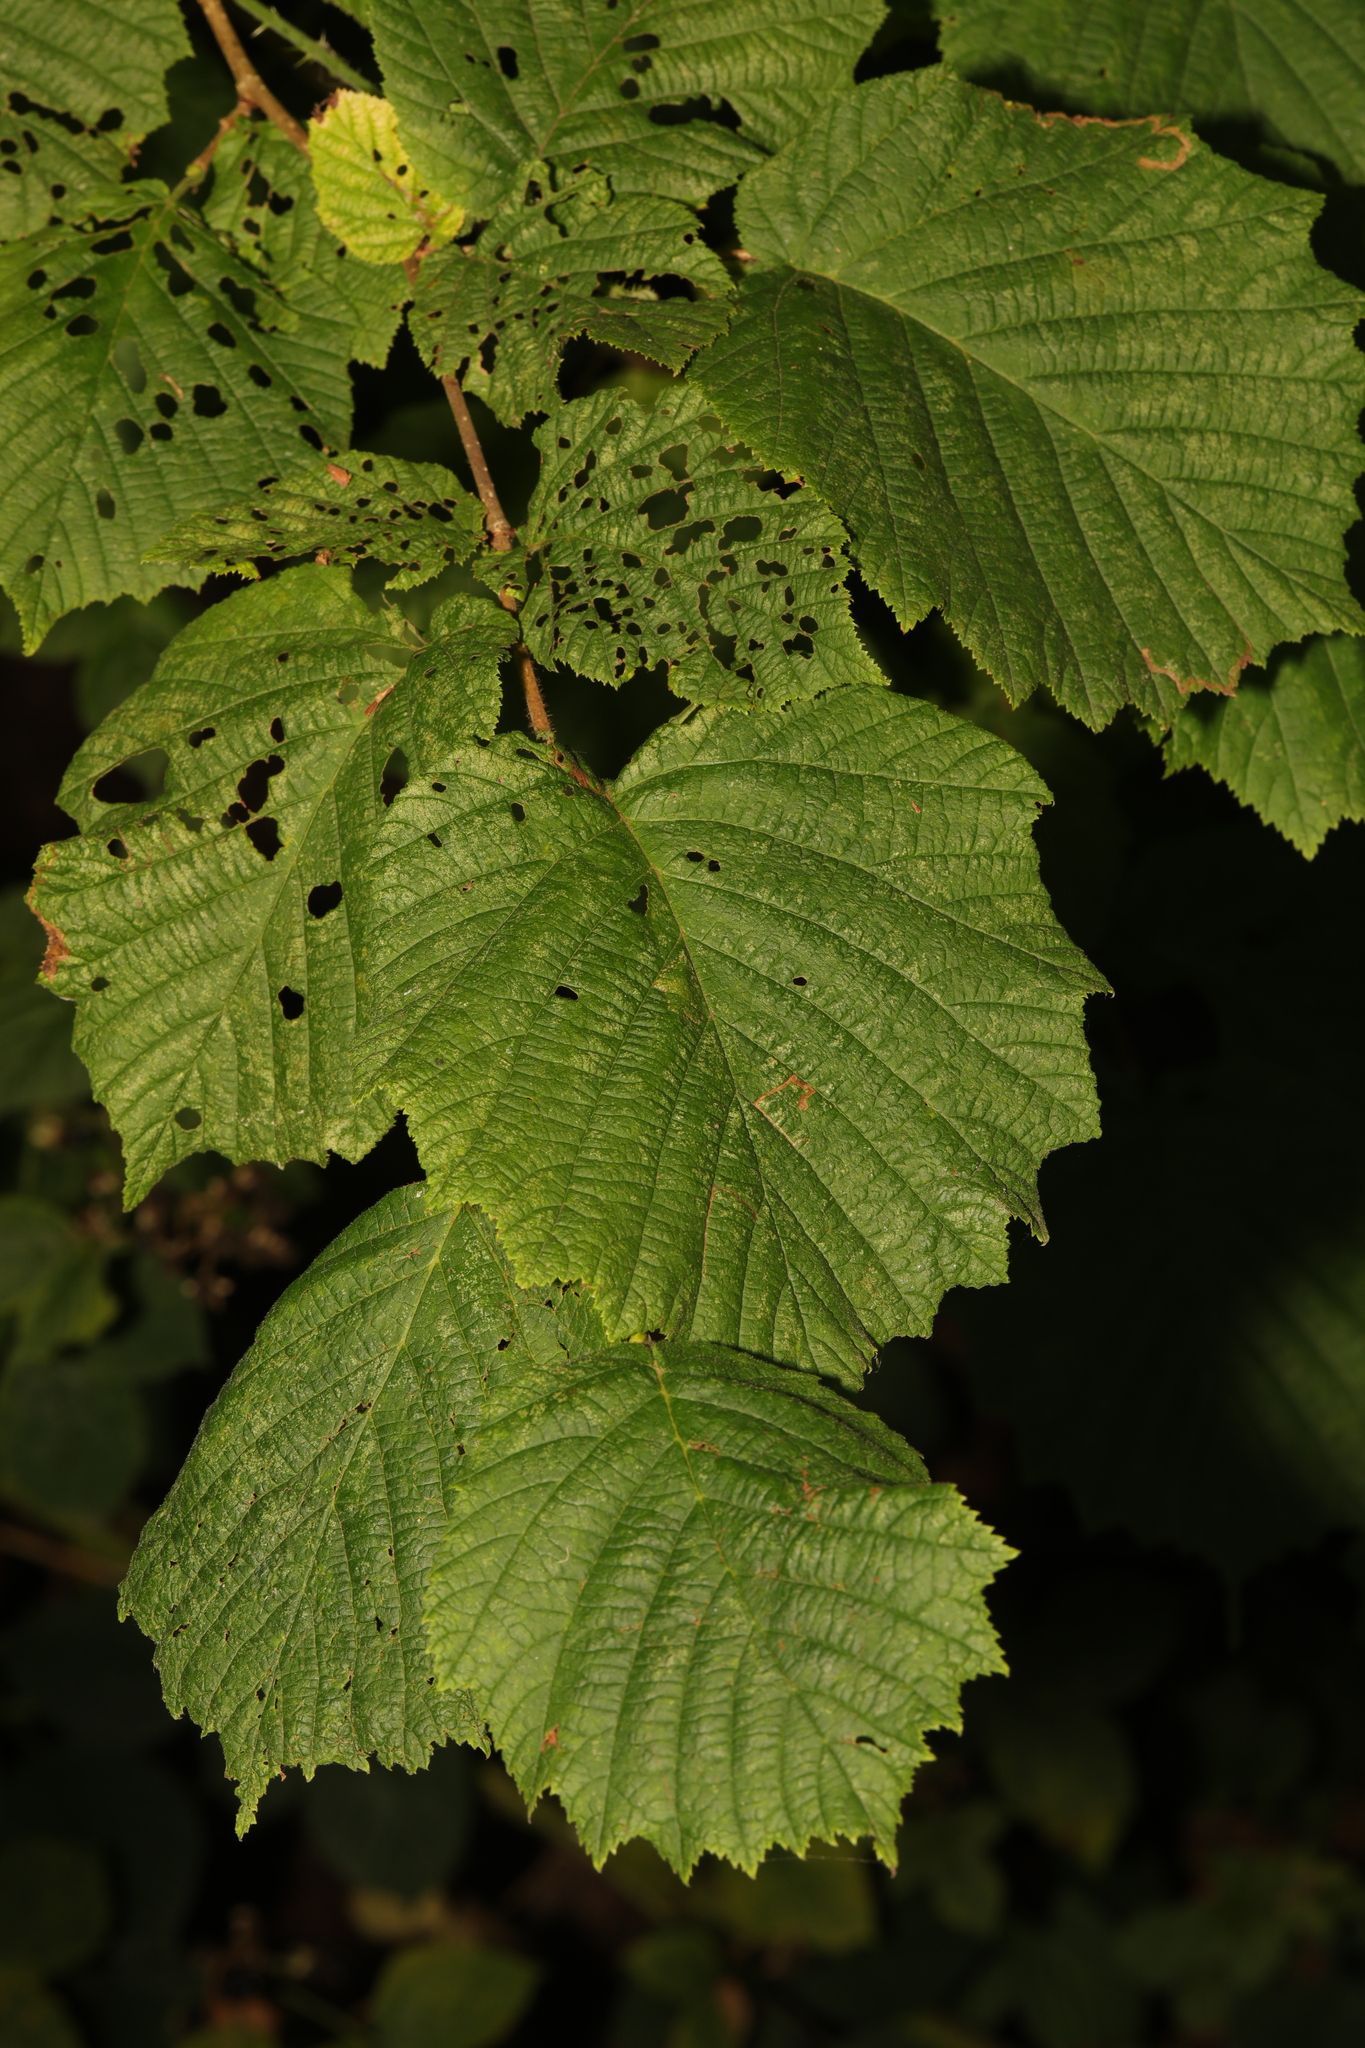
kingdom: Plantae
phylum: Tracheophyta
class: Magnoliopsida
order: Fagales
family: Betulaceae
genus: Corylus
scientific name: Corylus avellana
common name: European hazel
